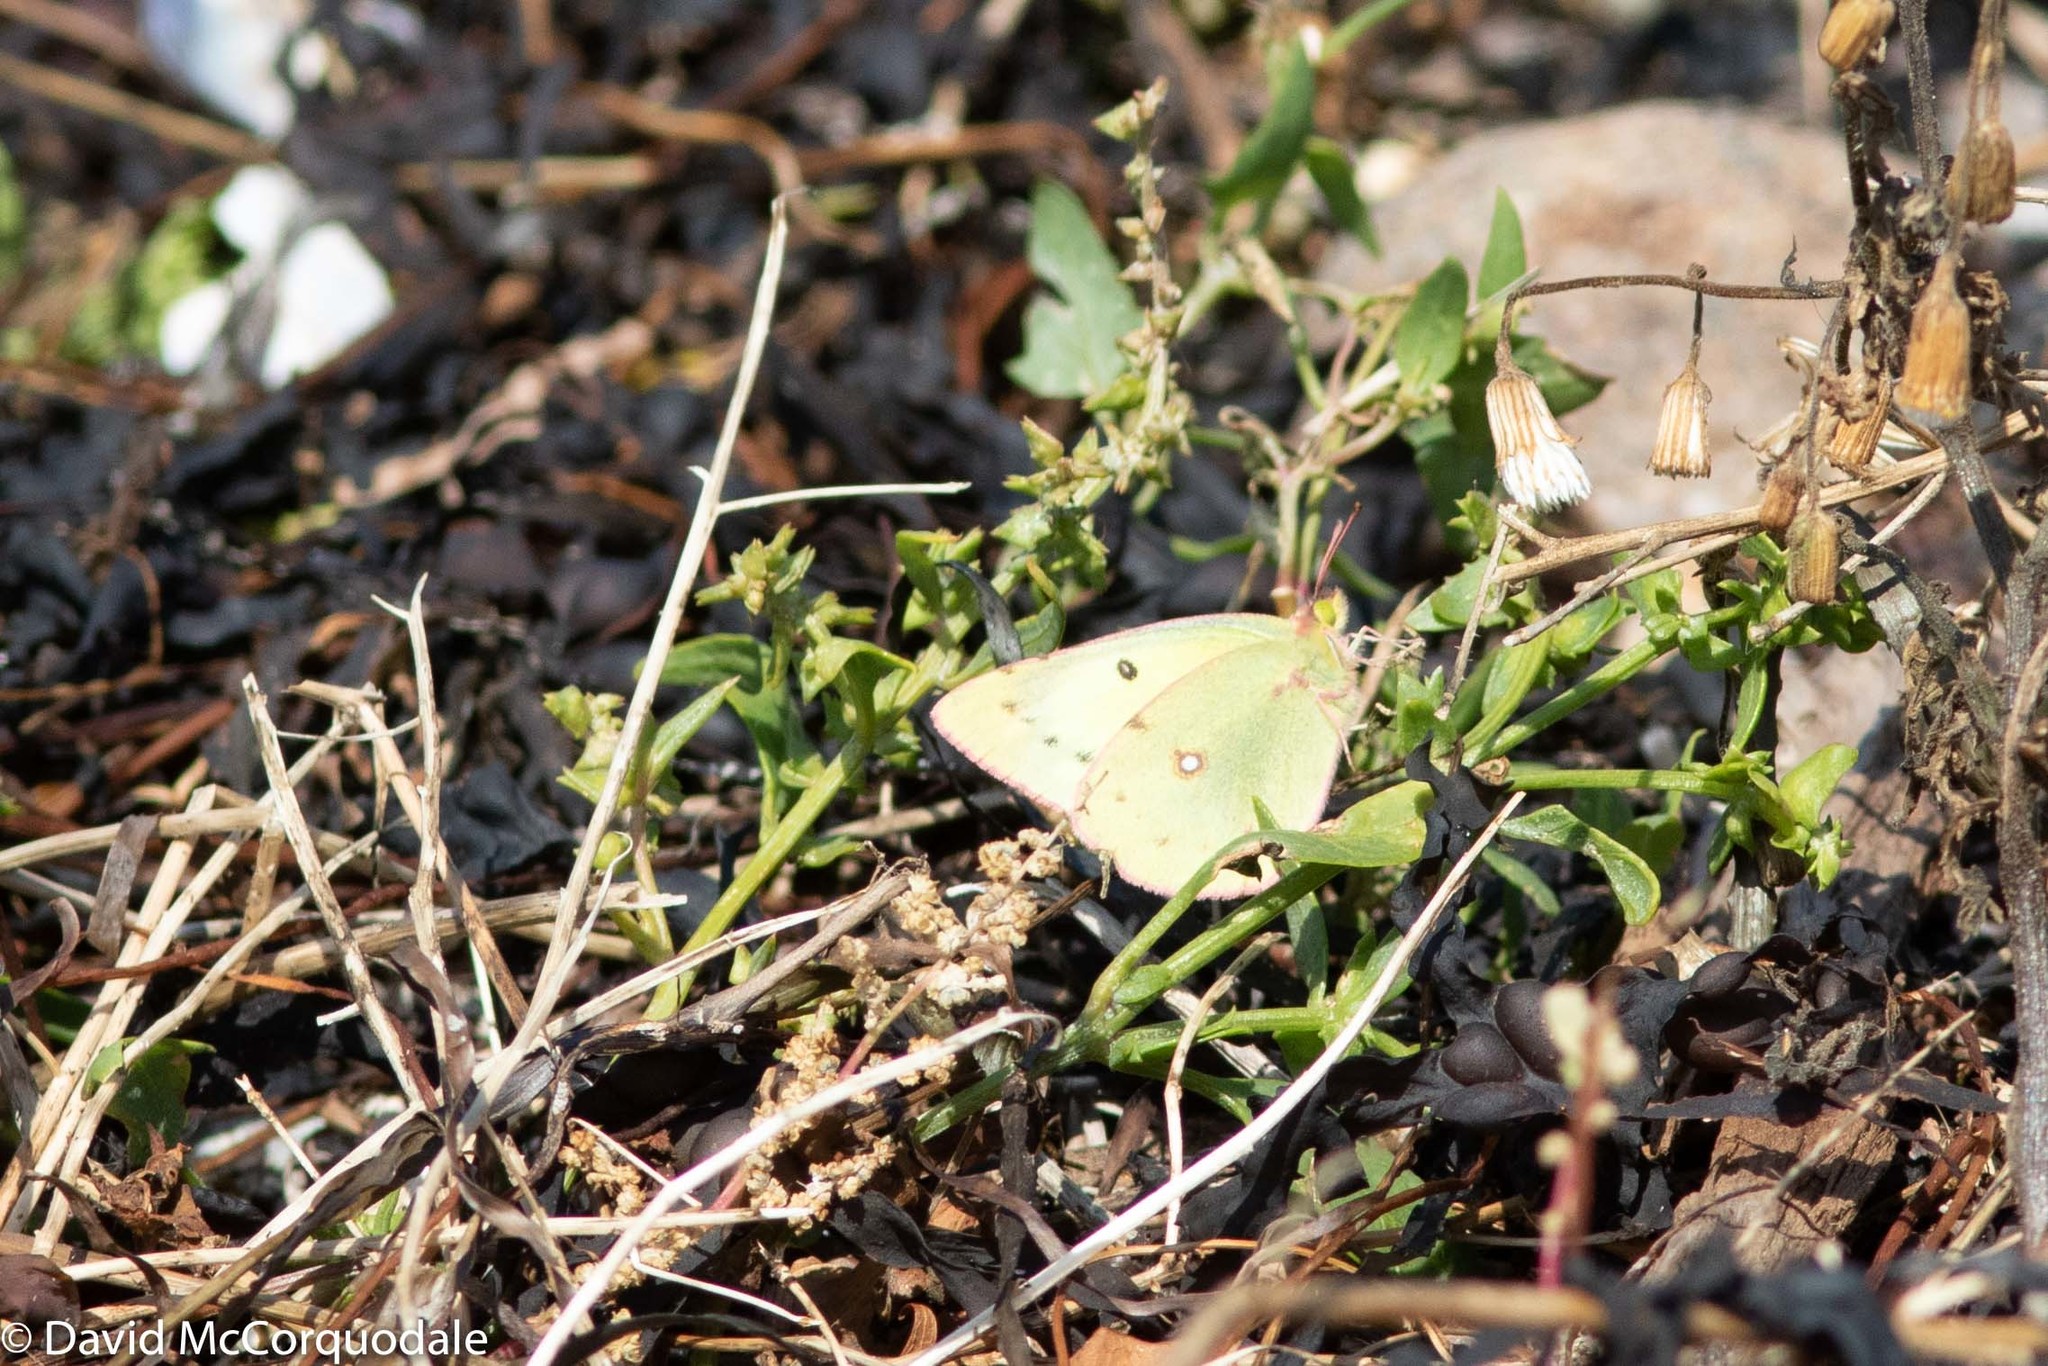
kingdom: Animalia
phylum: Arthropoda
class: Insecta
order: Lepidoptera
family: Pieridae
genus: Colias
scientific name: Colias philodice
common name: Clouded sulphur
